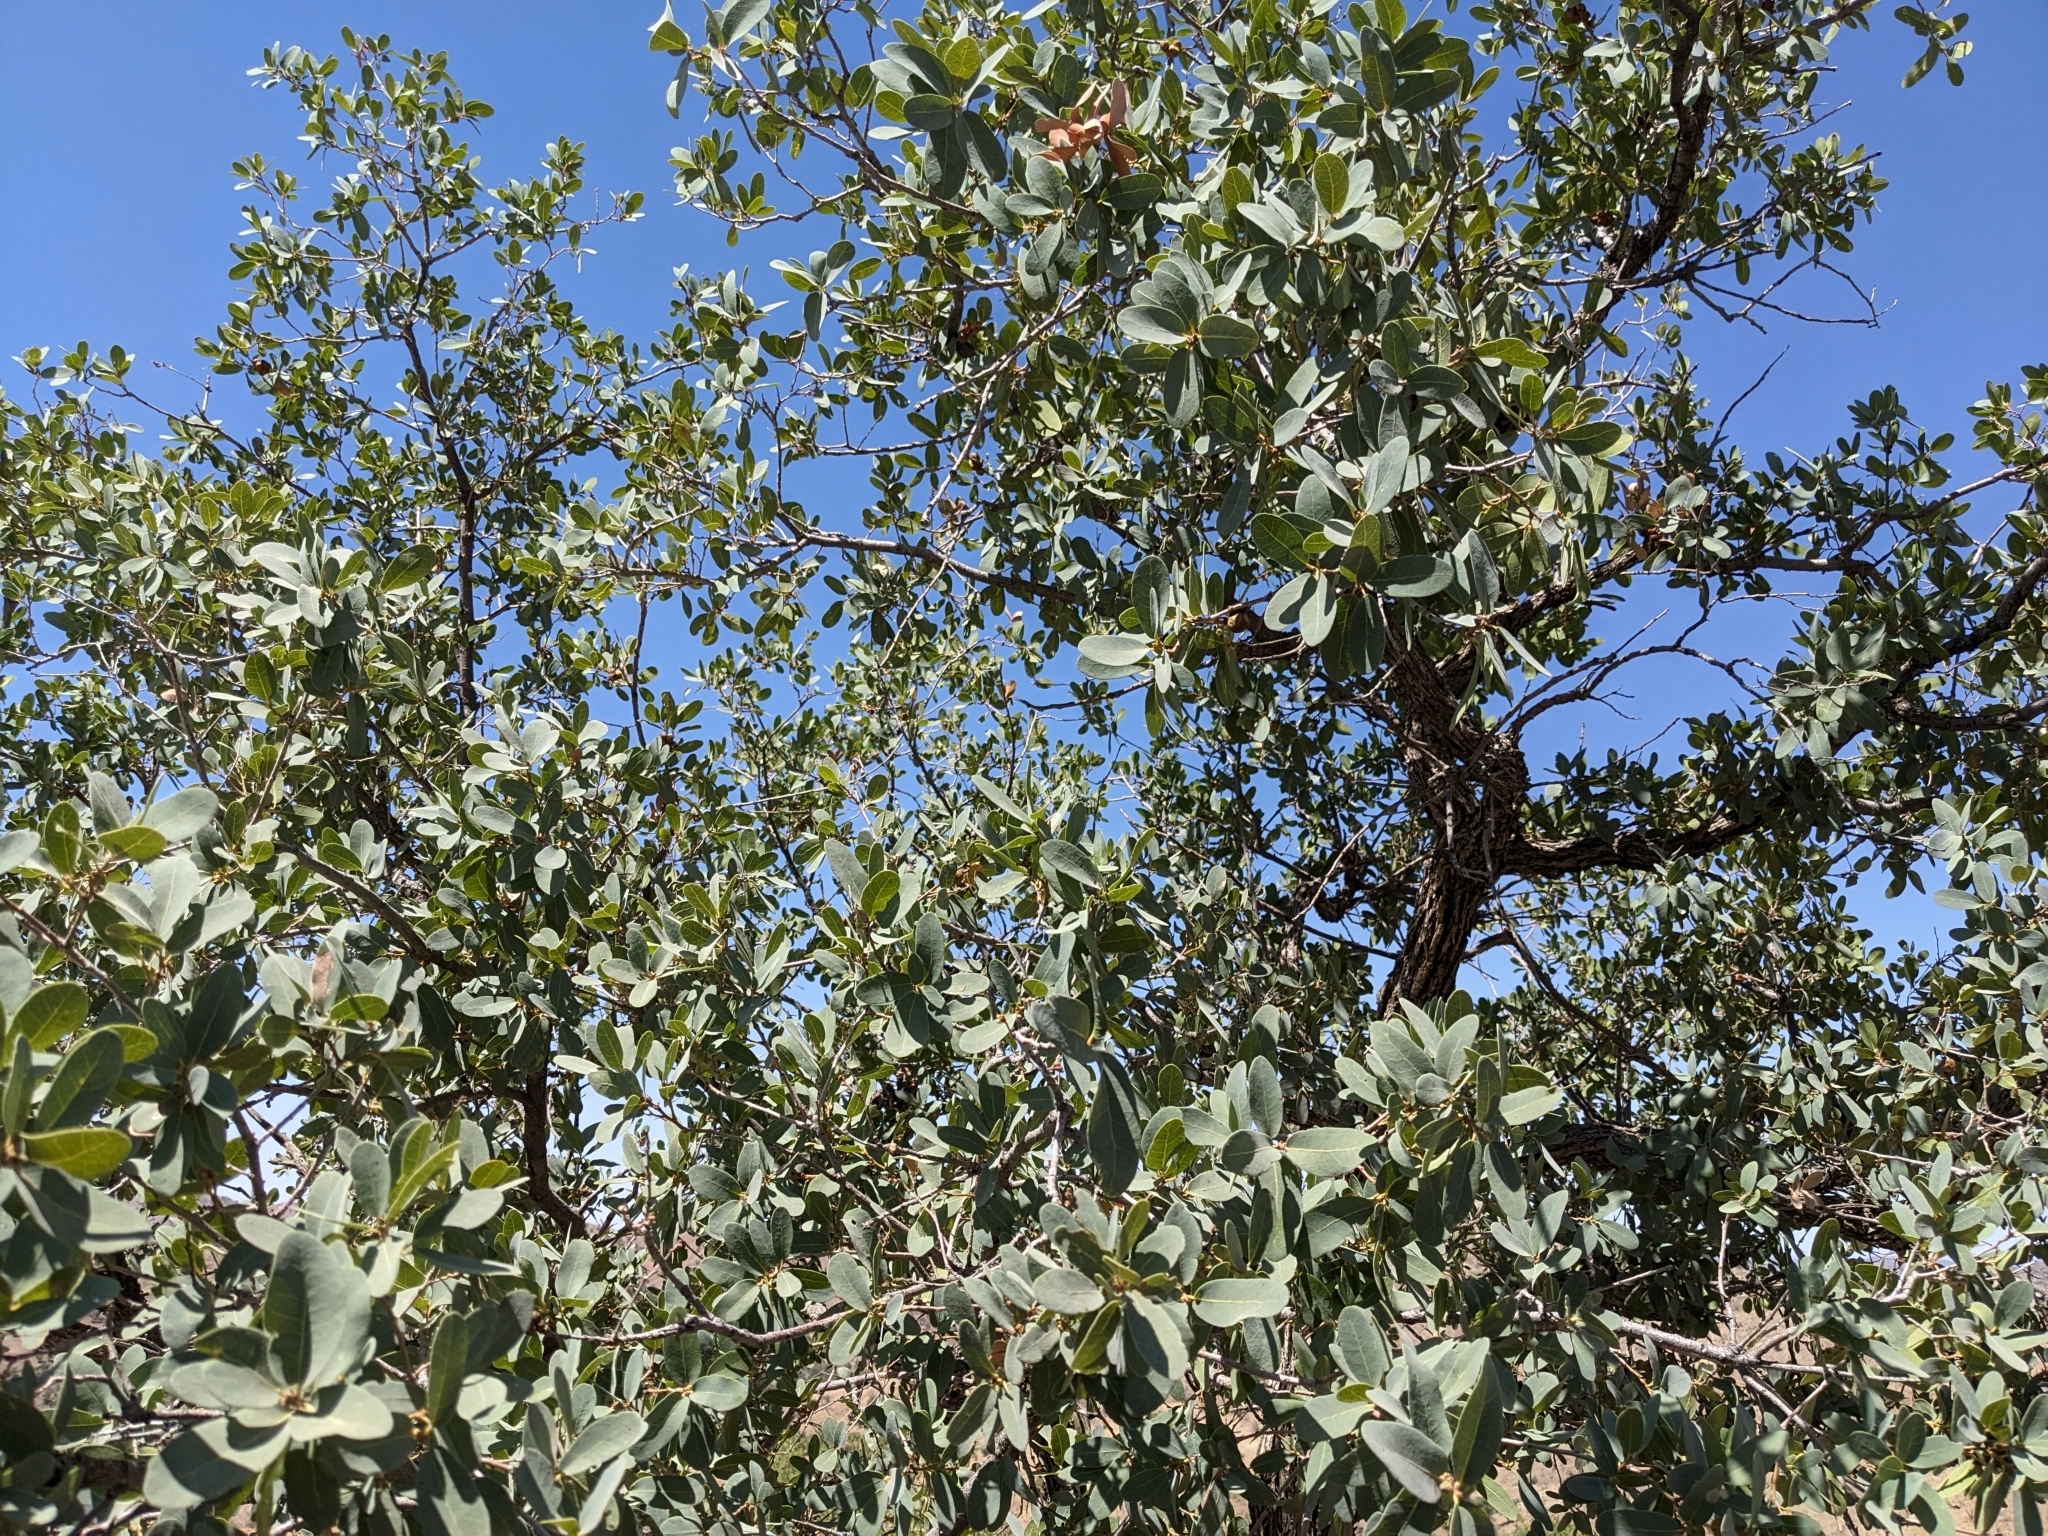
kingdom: Plantae
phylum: Tracheophyta
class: Magnoliopsida
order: Fagales
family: Fagaceae
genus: Quercus
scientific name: Quercus oblongifolia
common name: Mexican blue oak
